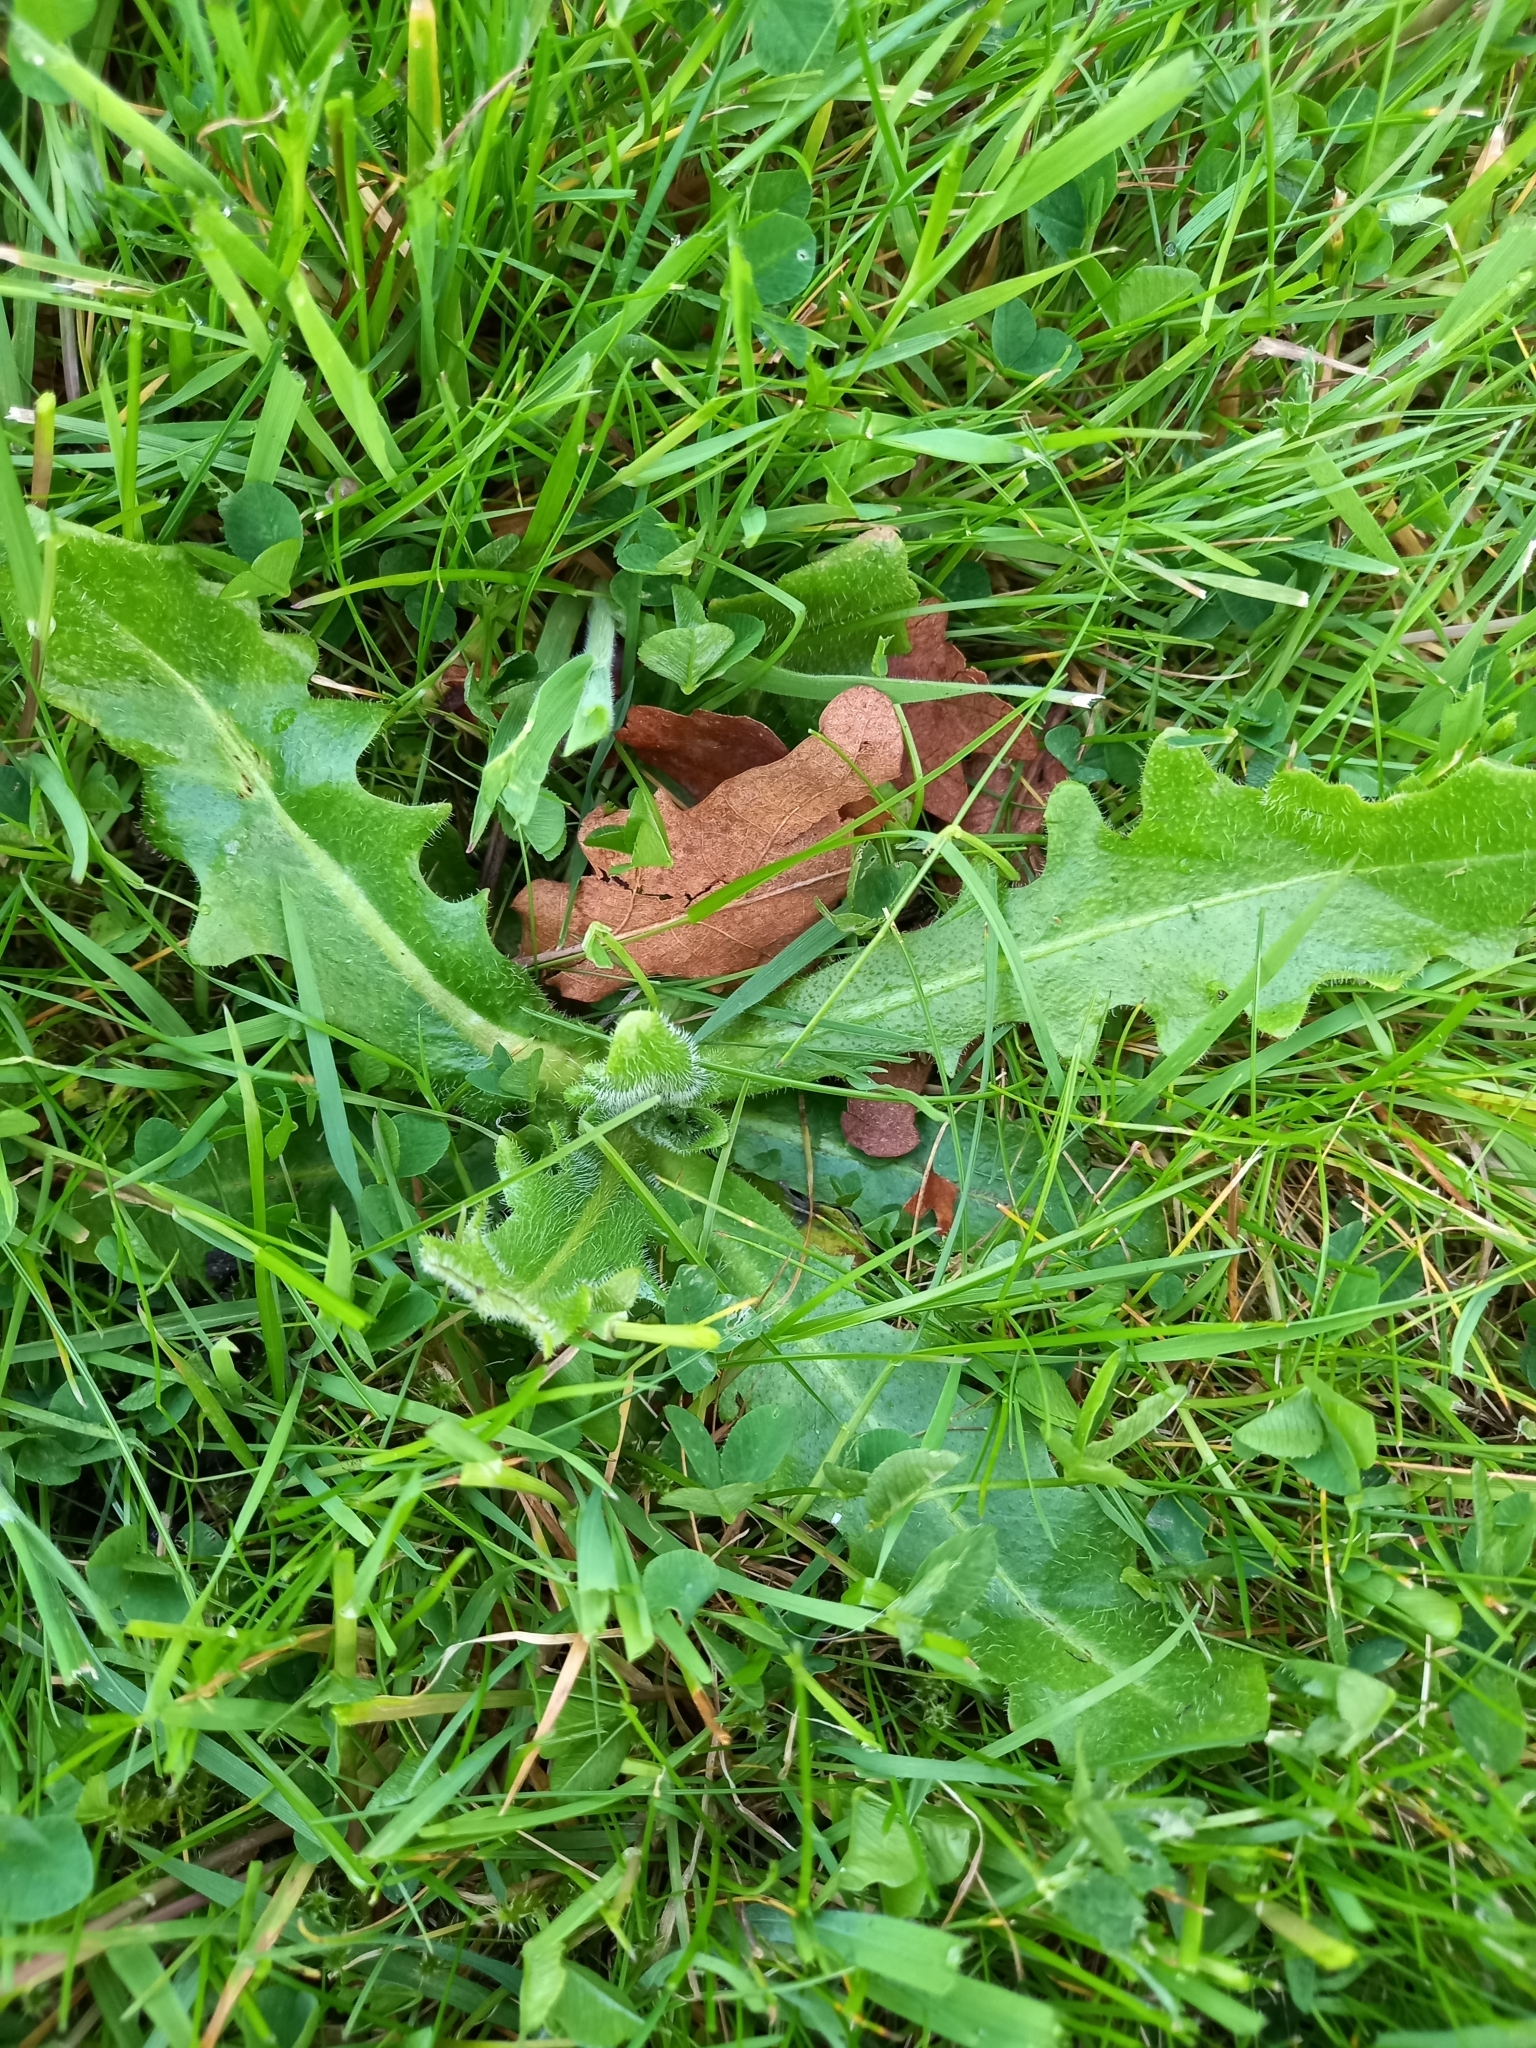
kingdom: Plantae
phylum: Tracheophyta
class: Magnoliopsida
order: Asterales
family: Asteraceae
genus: Hypochaeris
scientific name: Hypochaeris radicata
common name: Flatweed
